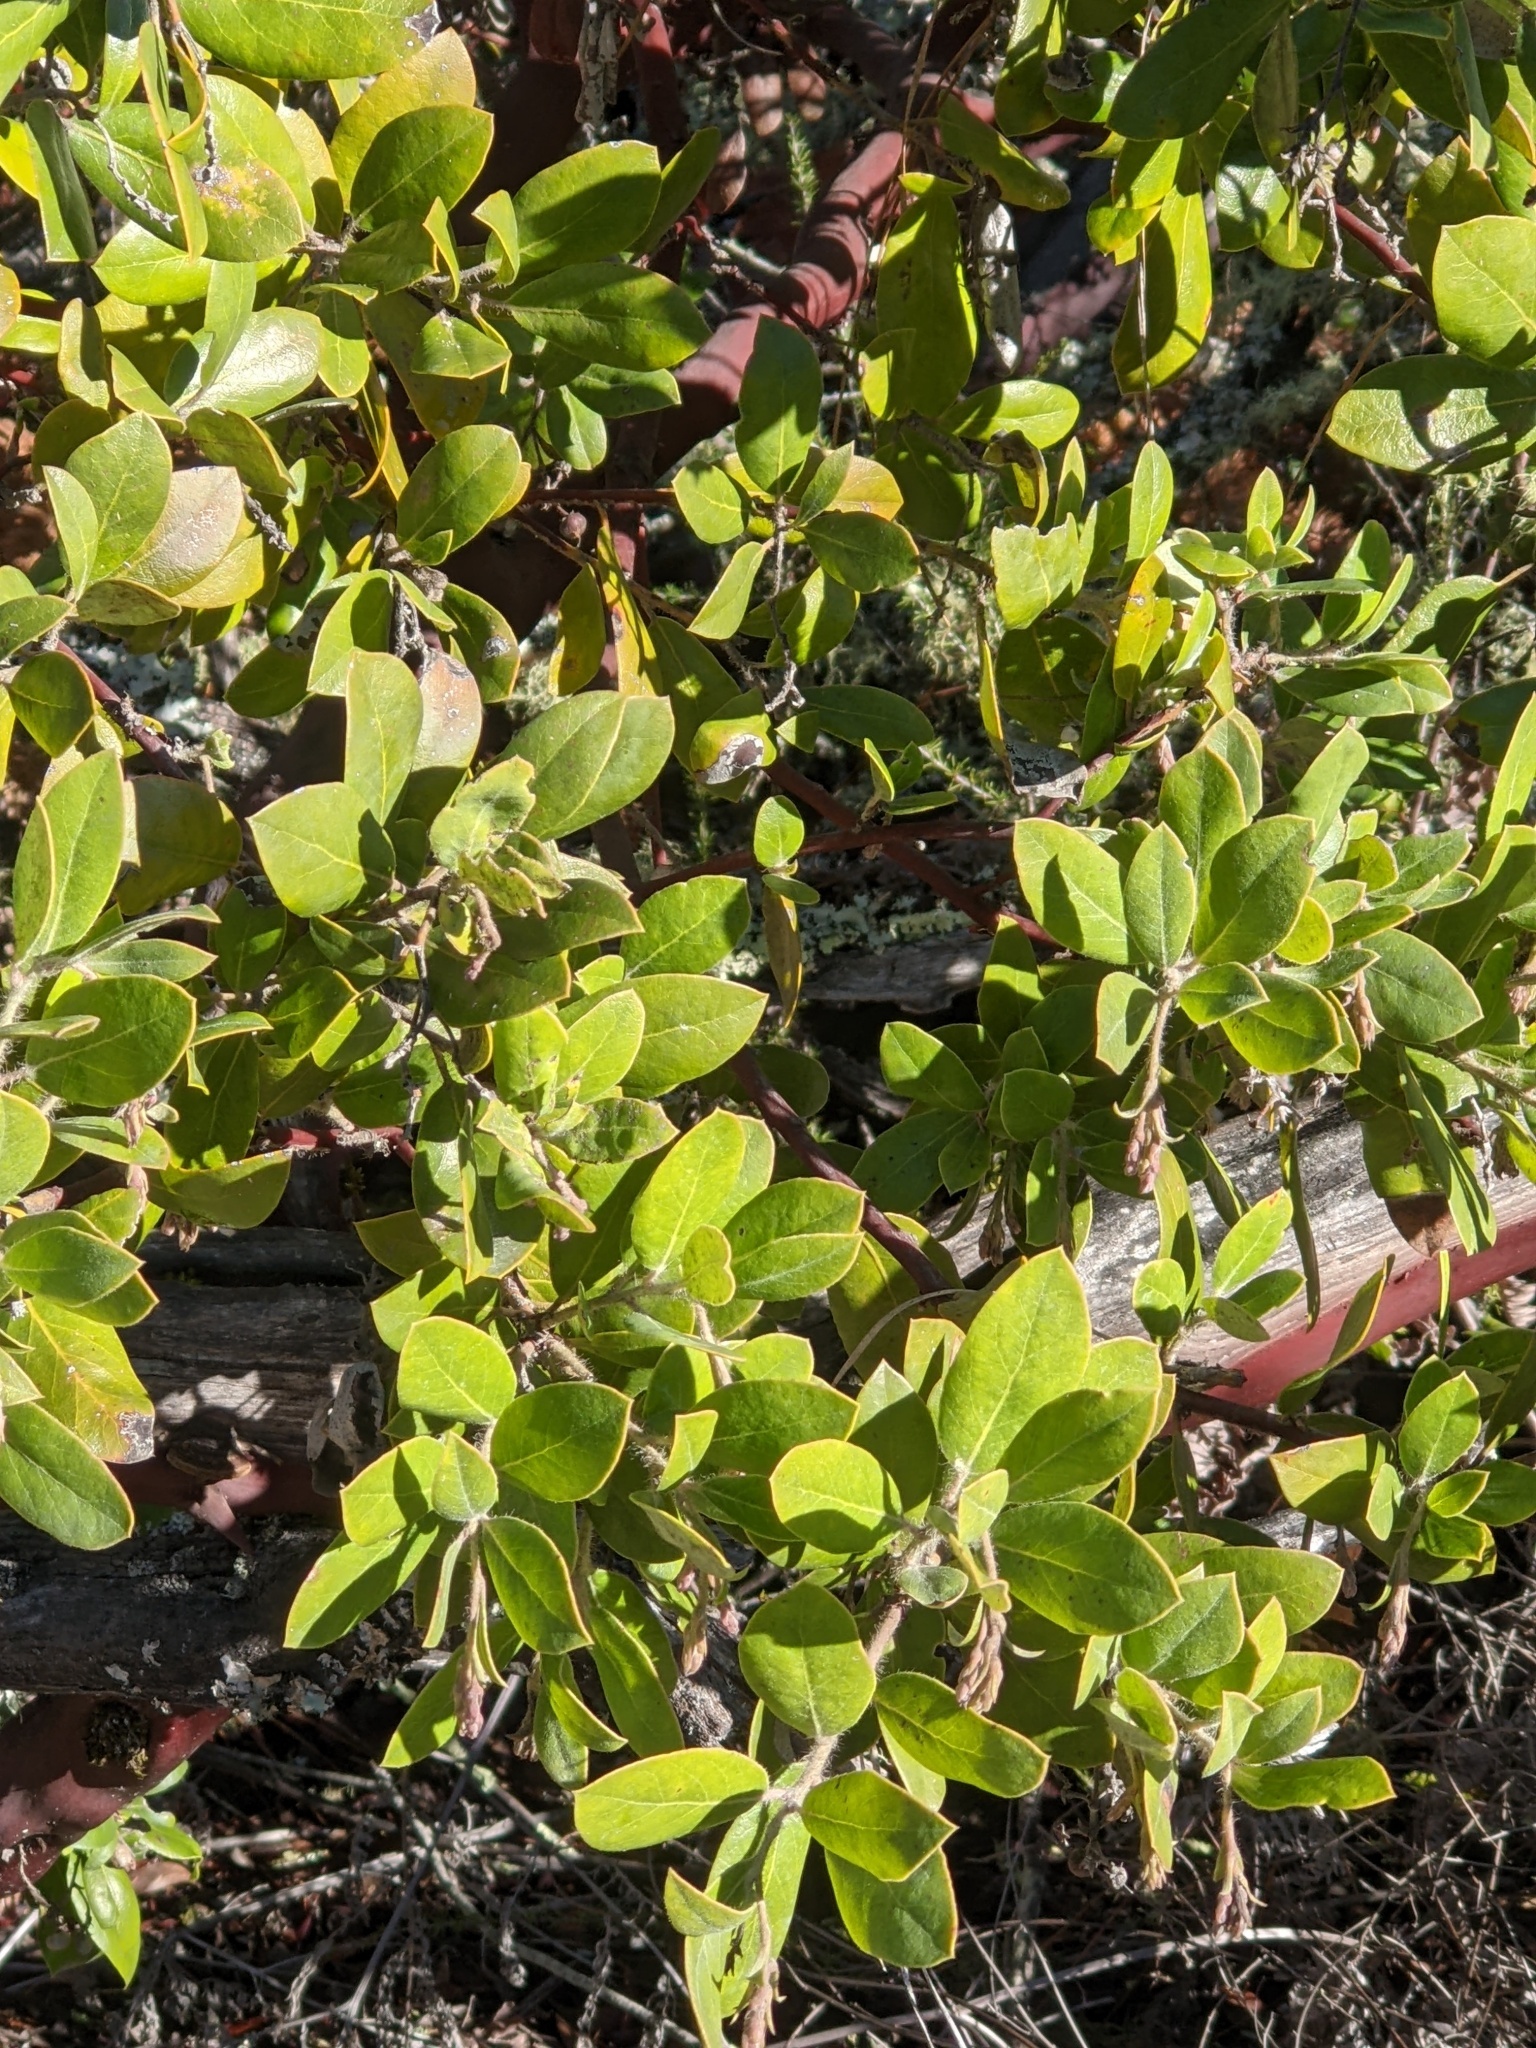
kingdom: Plantae
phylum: Tracheophyta
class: Magnoliopsida
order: Ericales
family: Ericaceae
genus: Arctostaphylos
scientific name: Arctostaphylos crustacea
